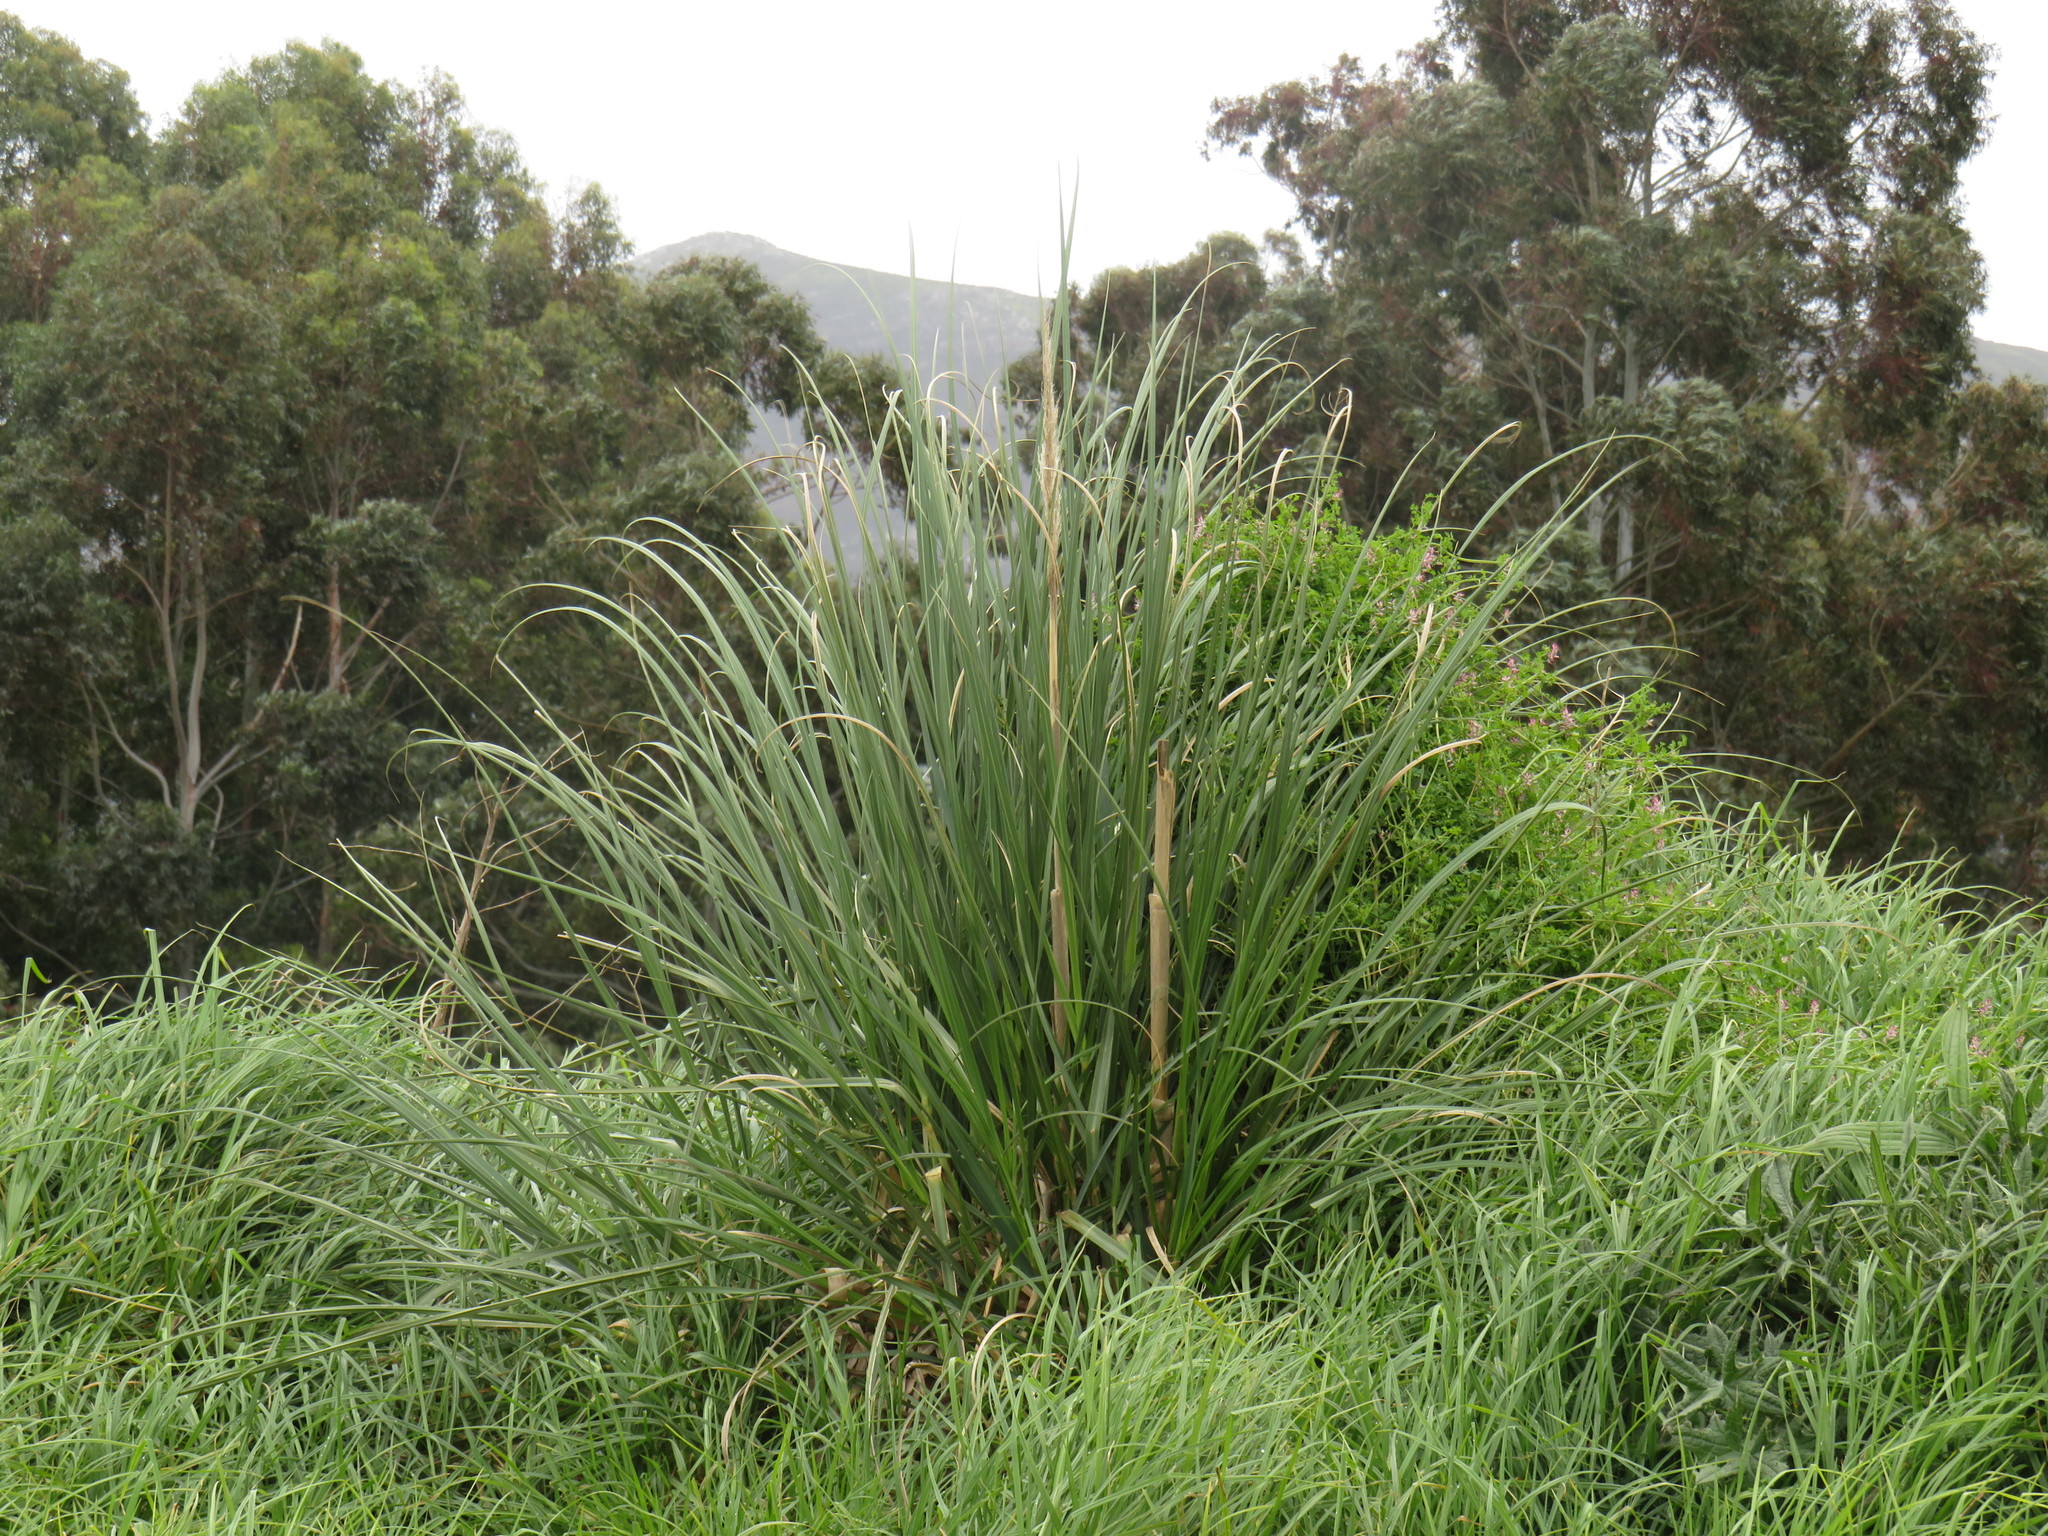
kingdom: Plantae
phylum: Tracheophyta
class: Liliopsida
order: Poales
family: Poaceae
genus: Cortaderia
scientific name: Cortaderia selloana
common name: Uruguayan pampas grass
